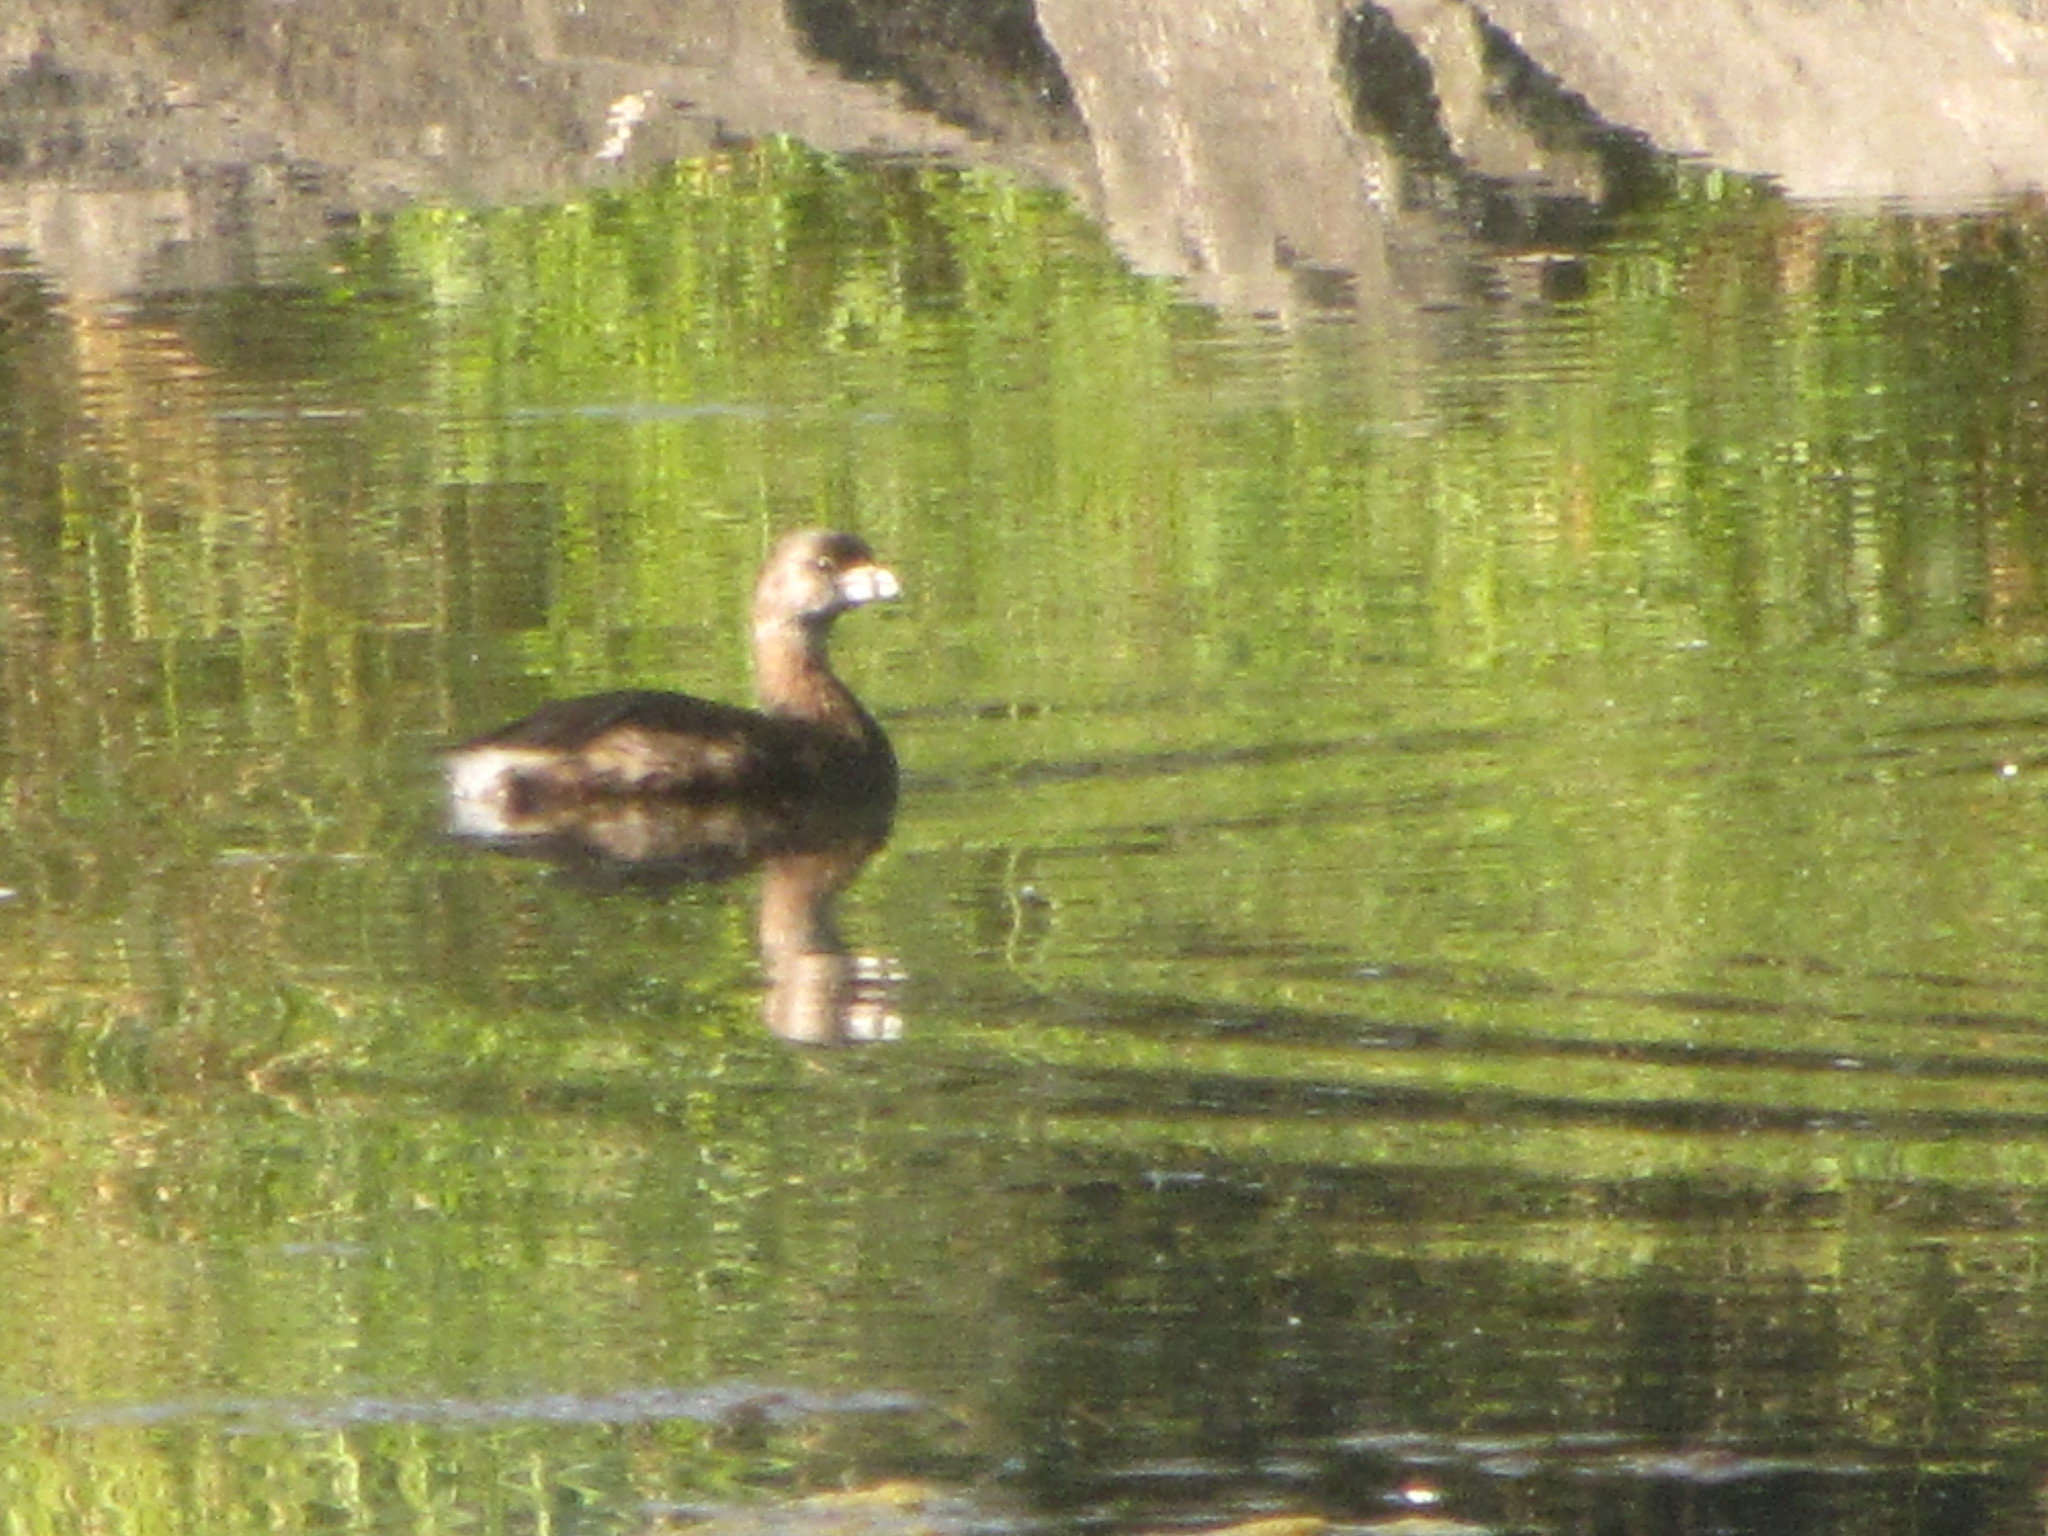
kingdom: Animalia
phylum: Chordata
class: Aves
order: Podicipediformes
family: Podicipedidae
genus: Podilymbus
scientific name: Podilymbus podiceps
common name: Pied-billed grebe
